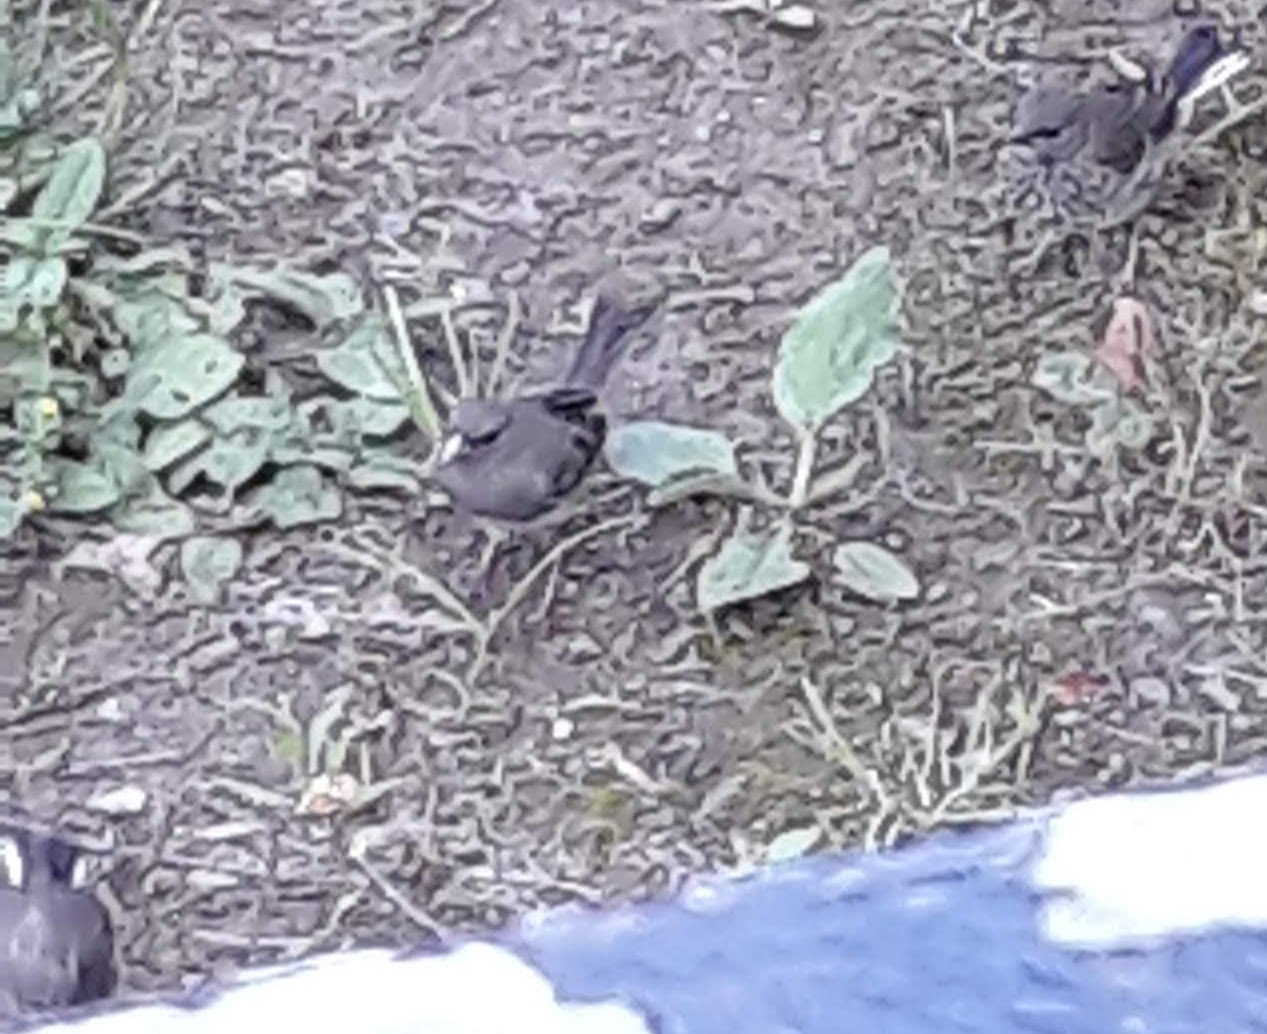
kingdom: Animalia
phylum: Chordata
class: Aves
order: Passeriformes
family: Passerellidae
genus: Junco
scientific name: Junco hyemalis
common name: Dark-eyed junco
